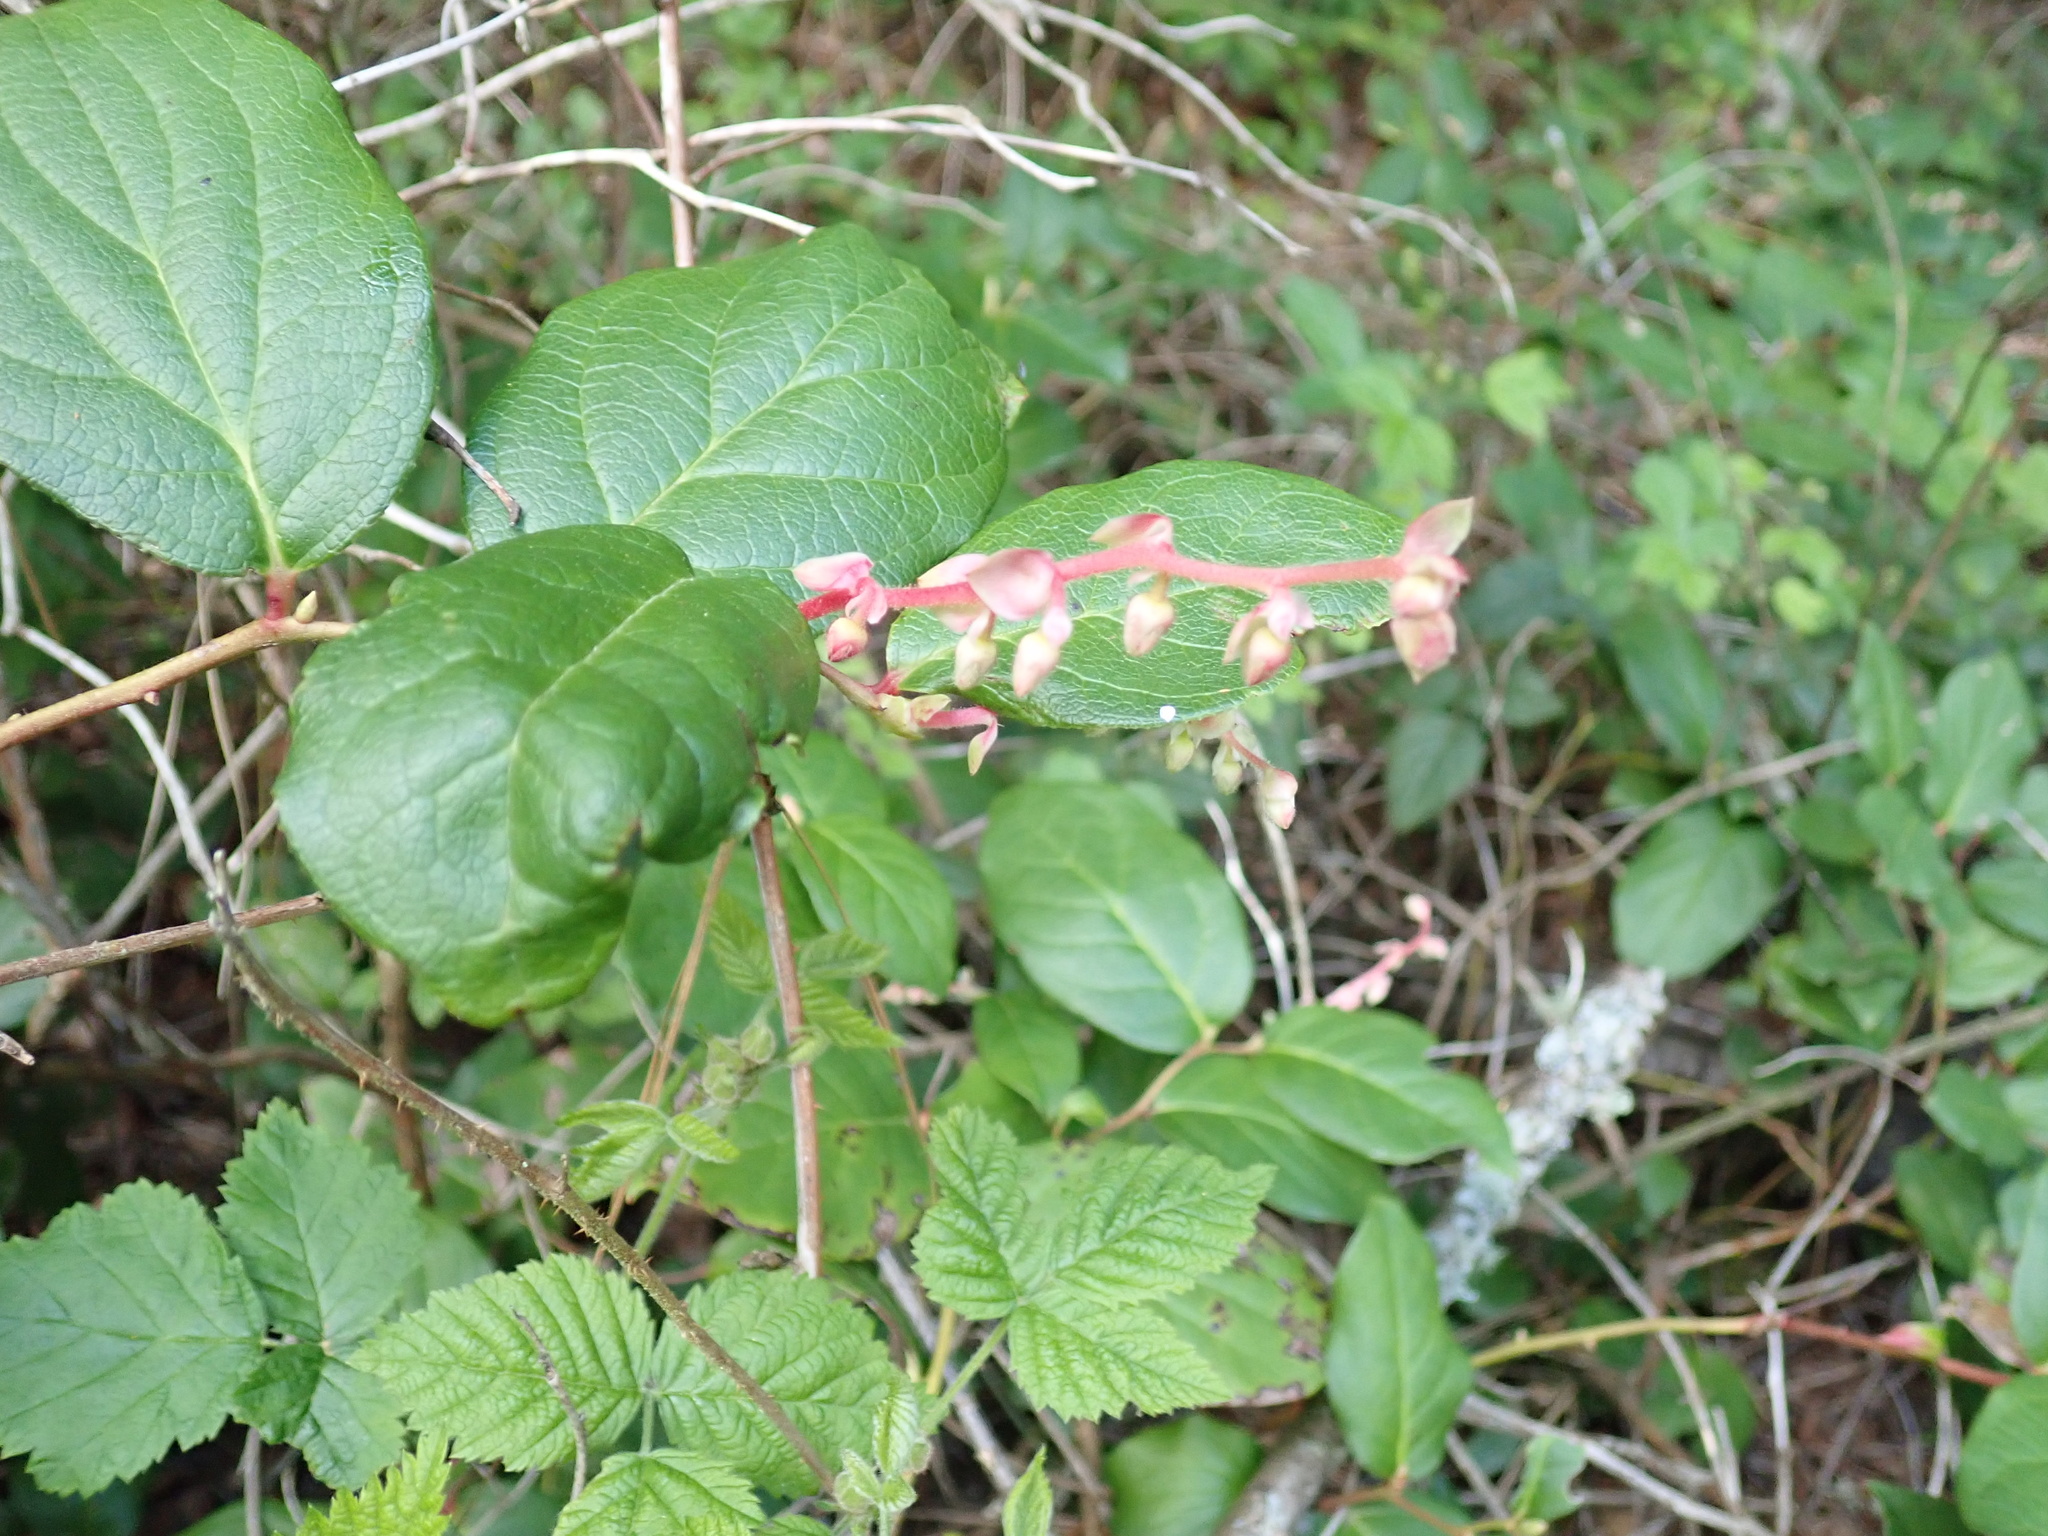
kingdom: Plantae
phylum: Tracheophyta
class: Magnoliopsida
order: Ericales
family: Ericaceae
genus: Gaultheria
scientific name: Gaultheria shallon
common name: Shallon
